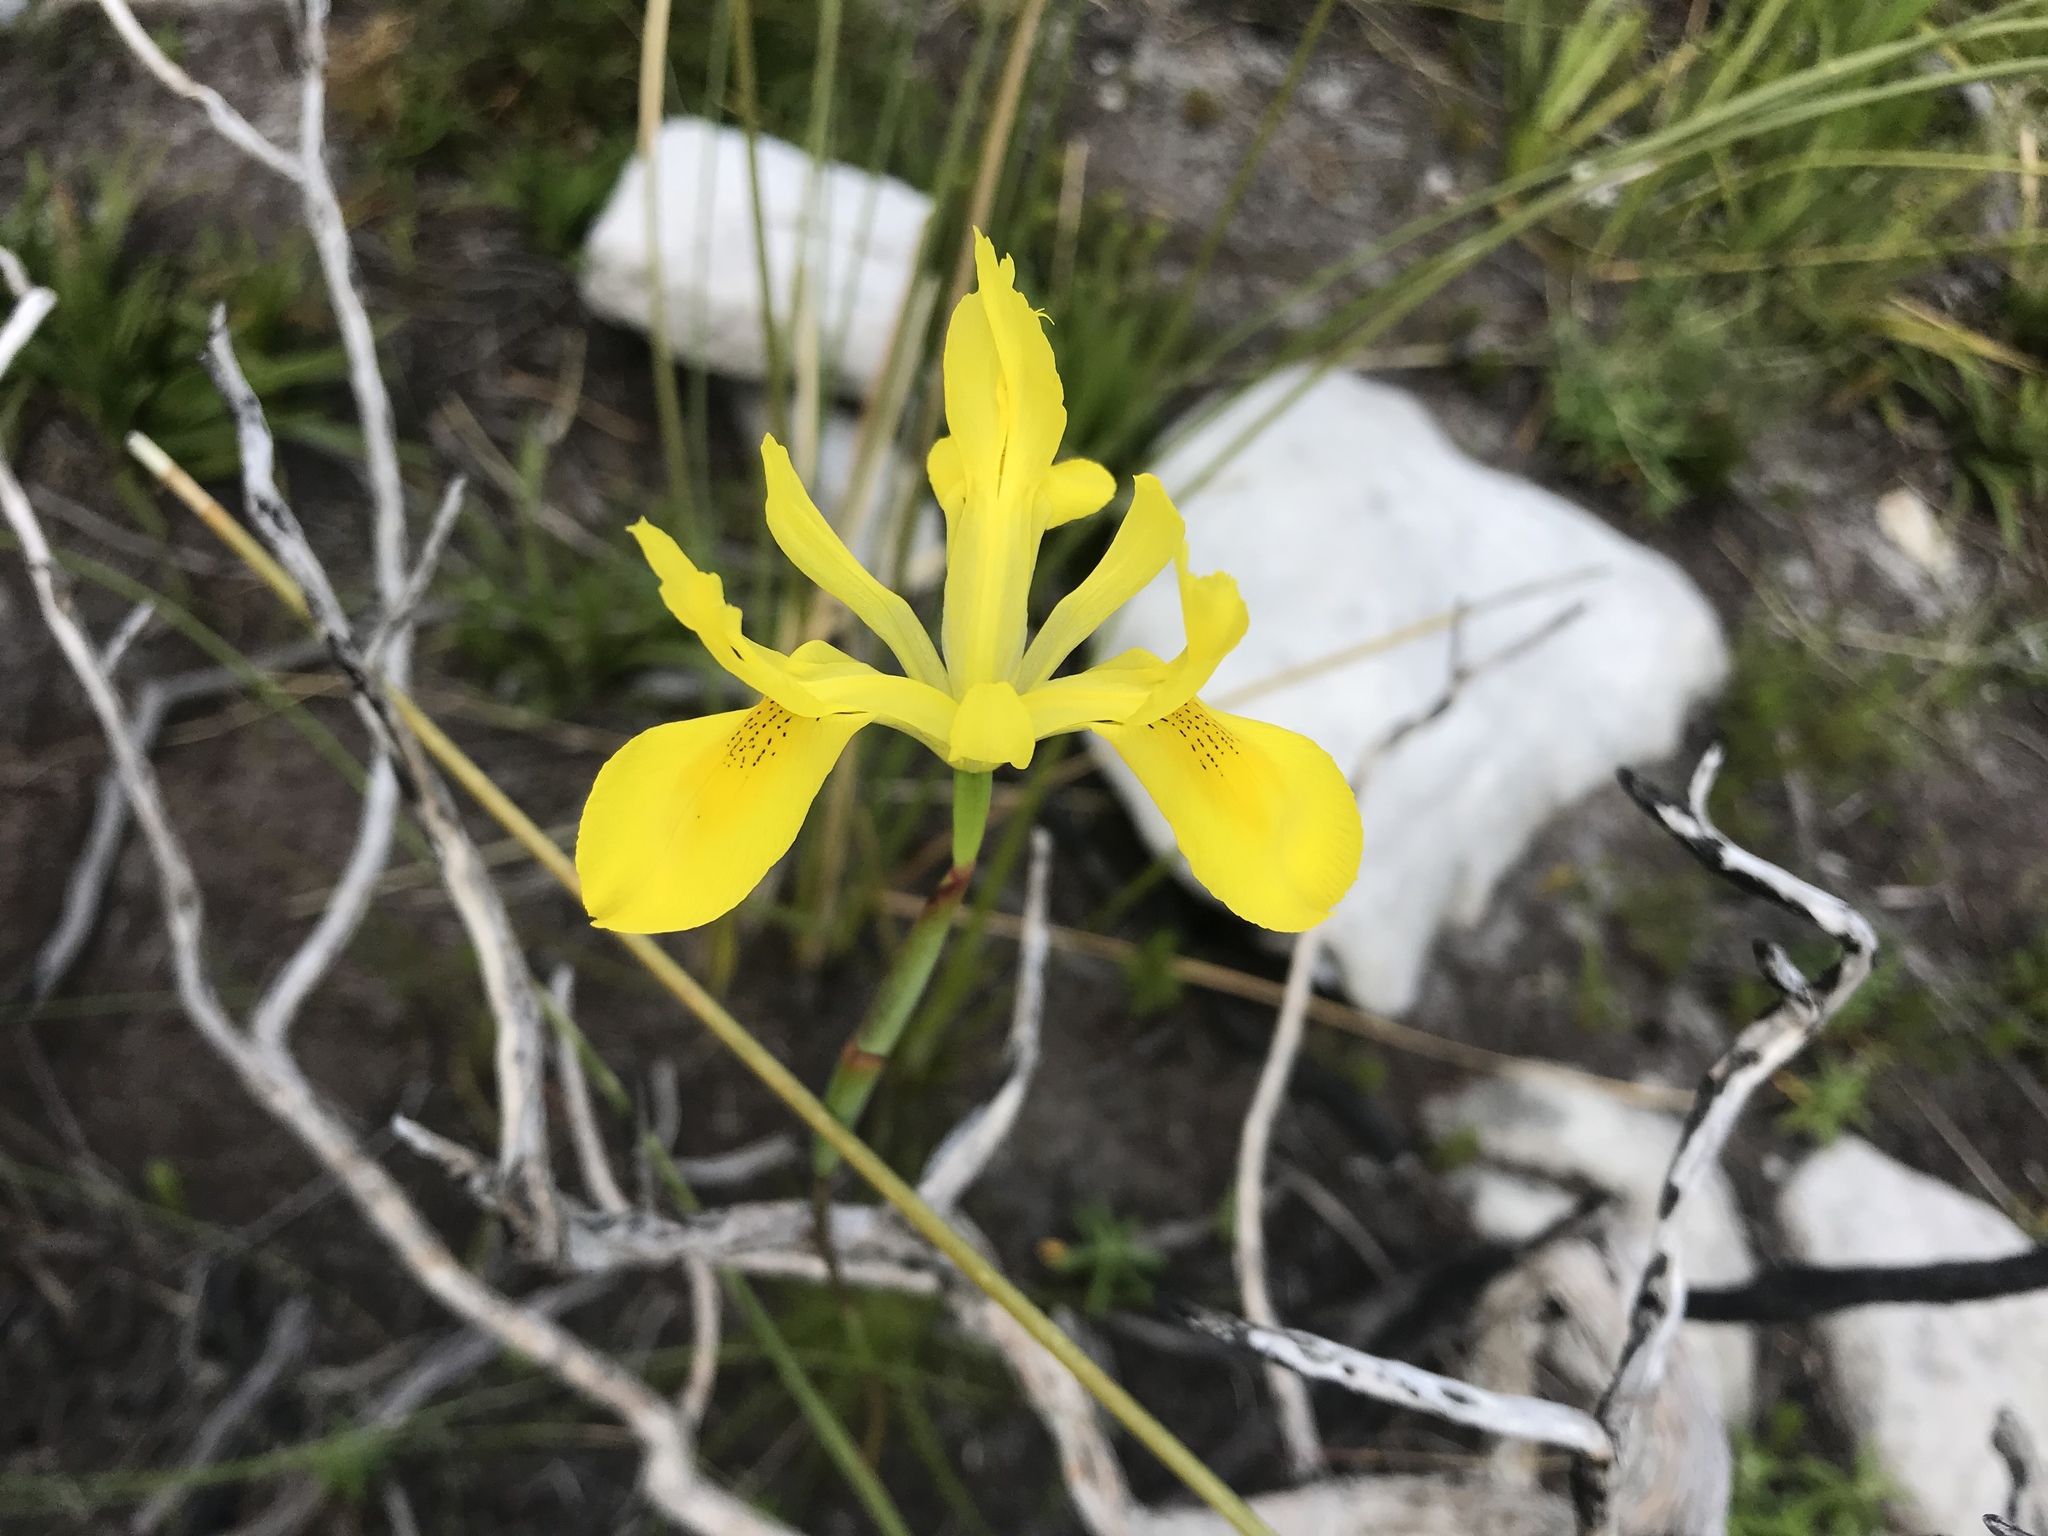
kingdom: Plantae
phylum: Tracheophyta
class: Liliopsida
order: Asparagales
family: Iridaceae
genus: Moraea
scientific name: Moraea neglecta
